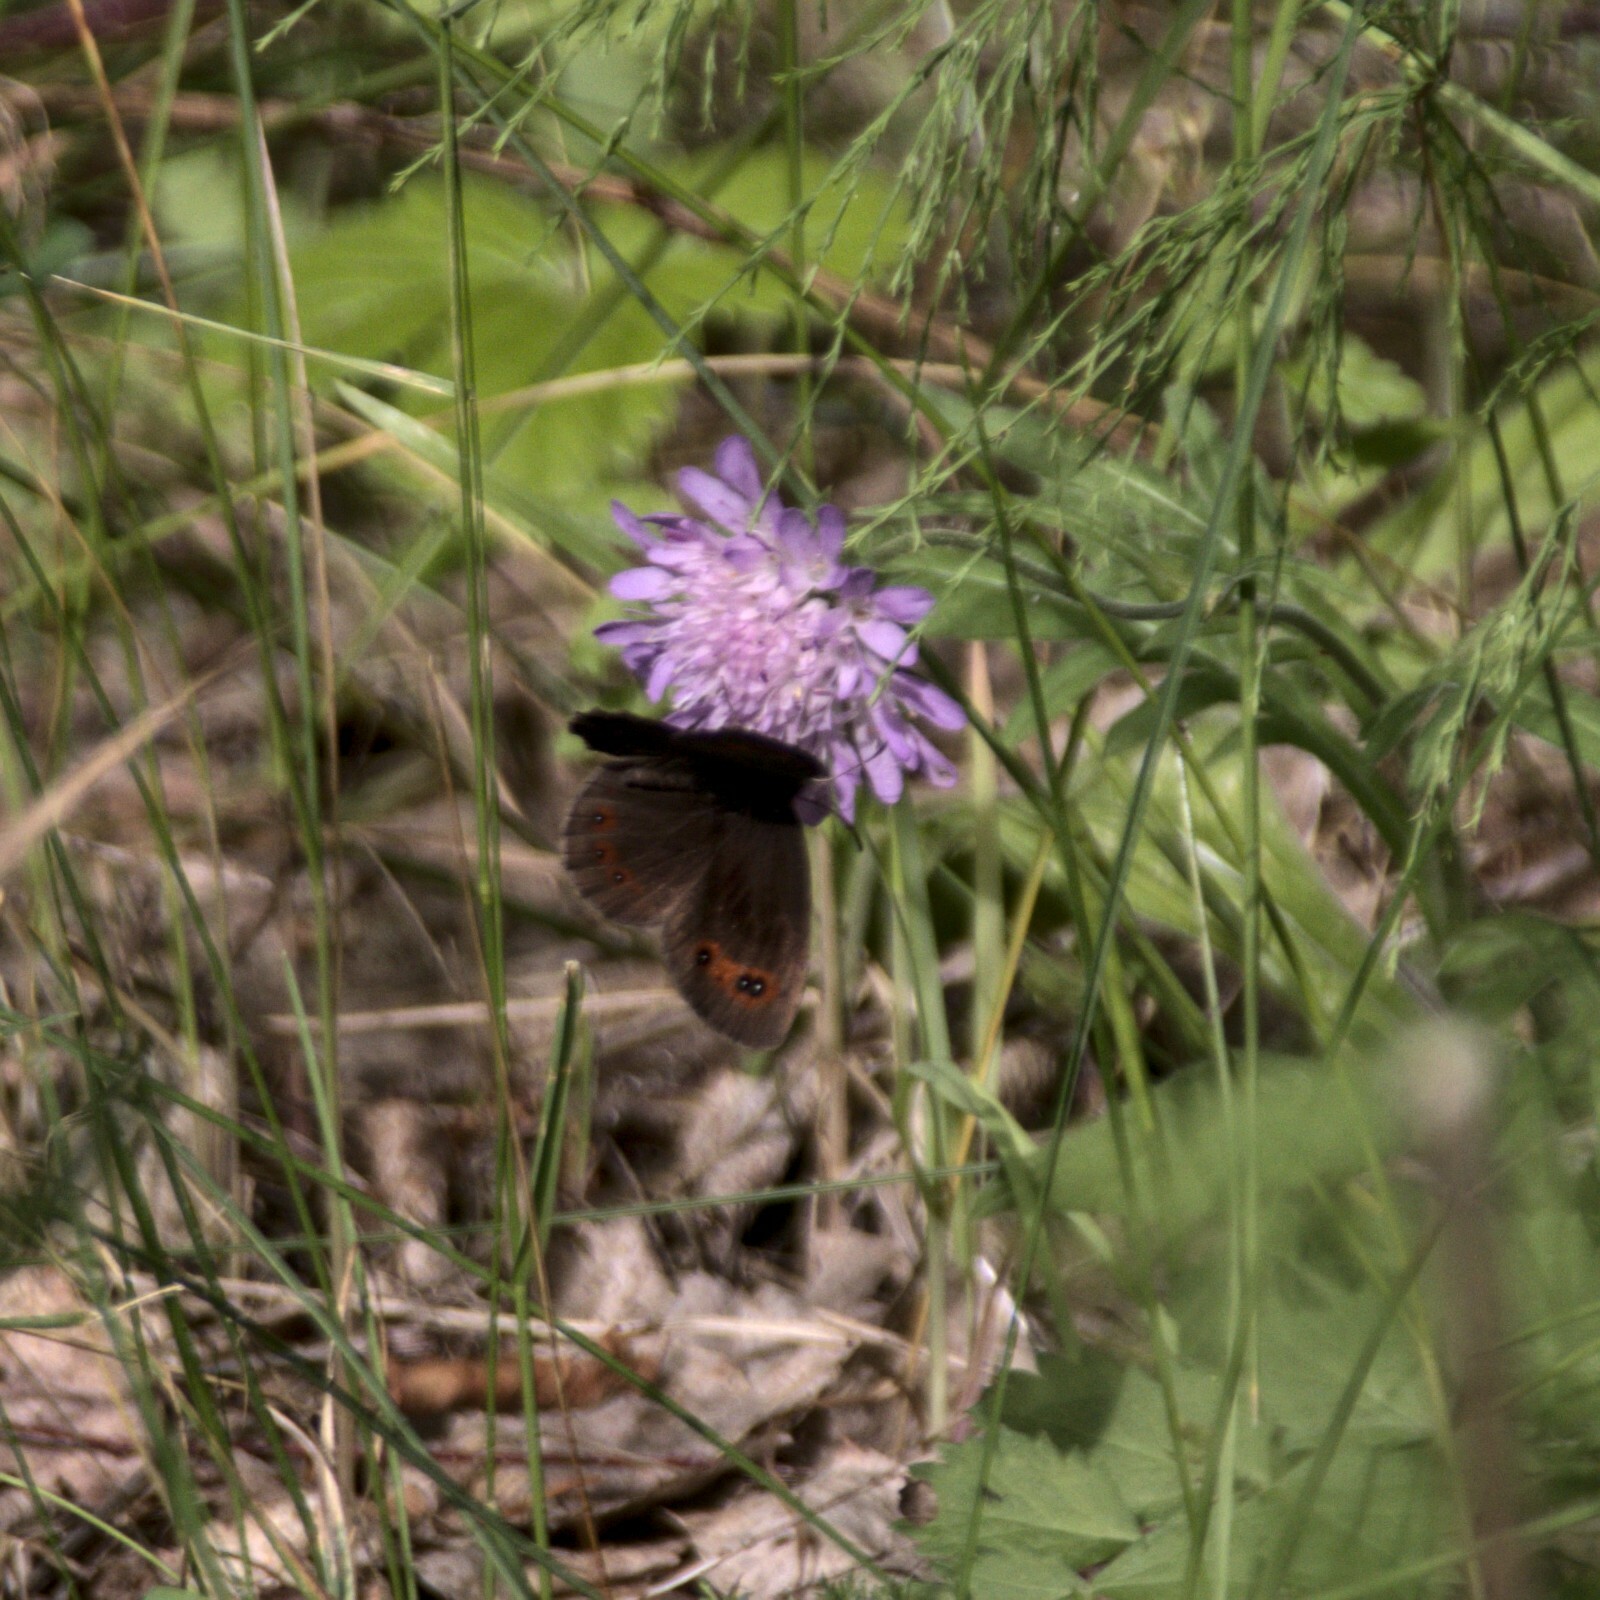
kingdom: Animalia
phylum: Arthropoda
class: Insecta
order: Lepidoptera
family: Nymphalidae
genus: Erebia
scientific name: Erebia aethiops
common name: Scotch argus
